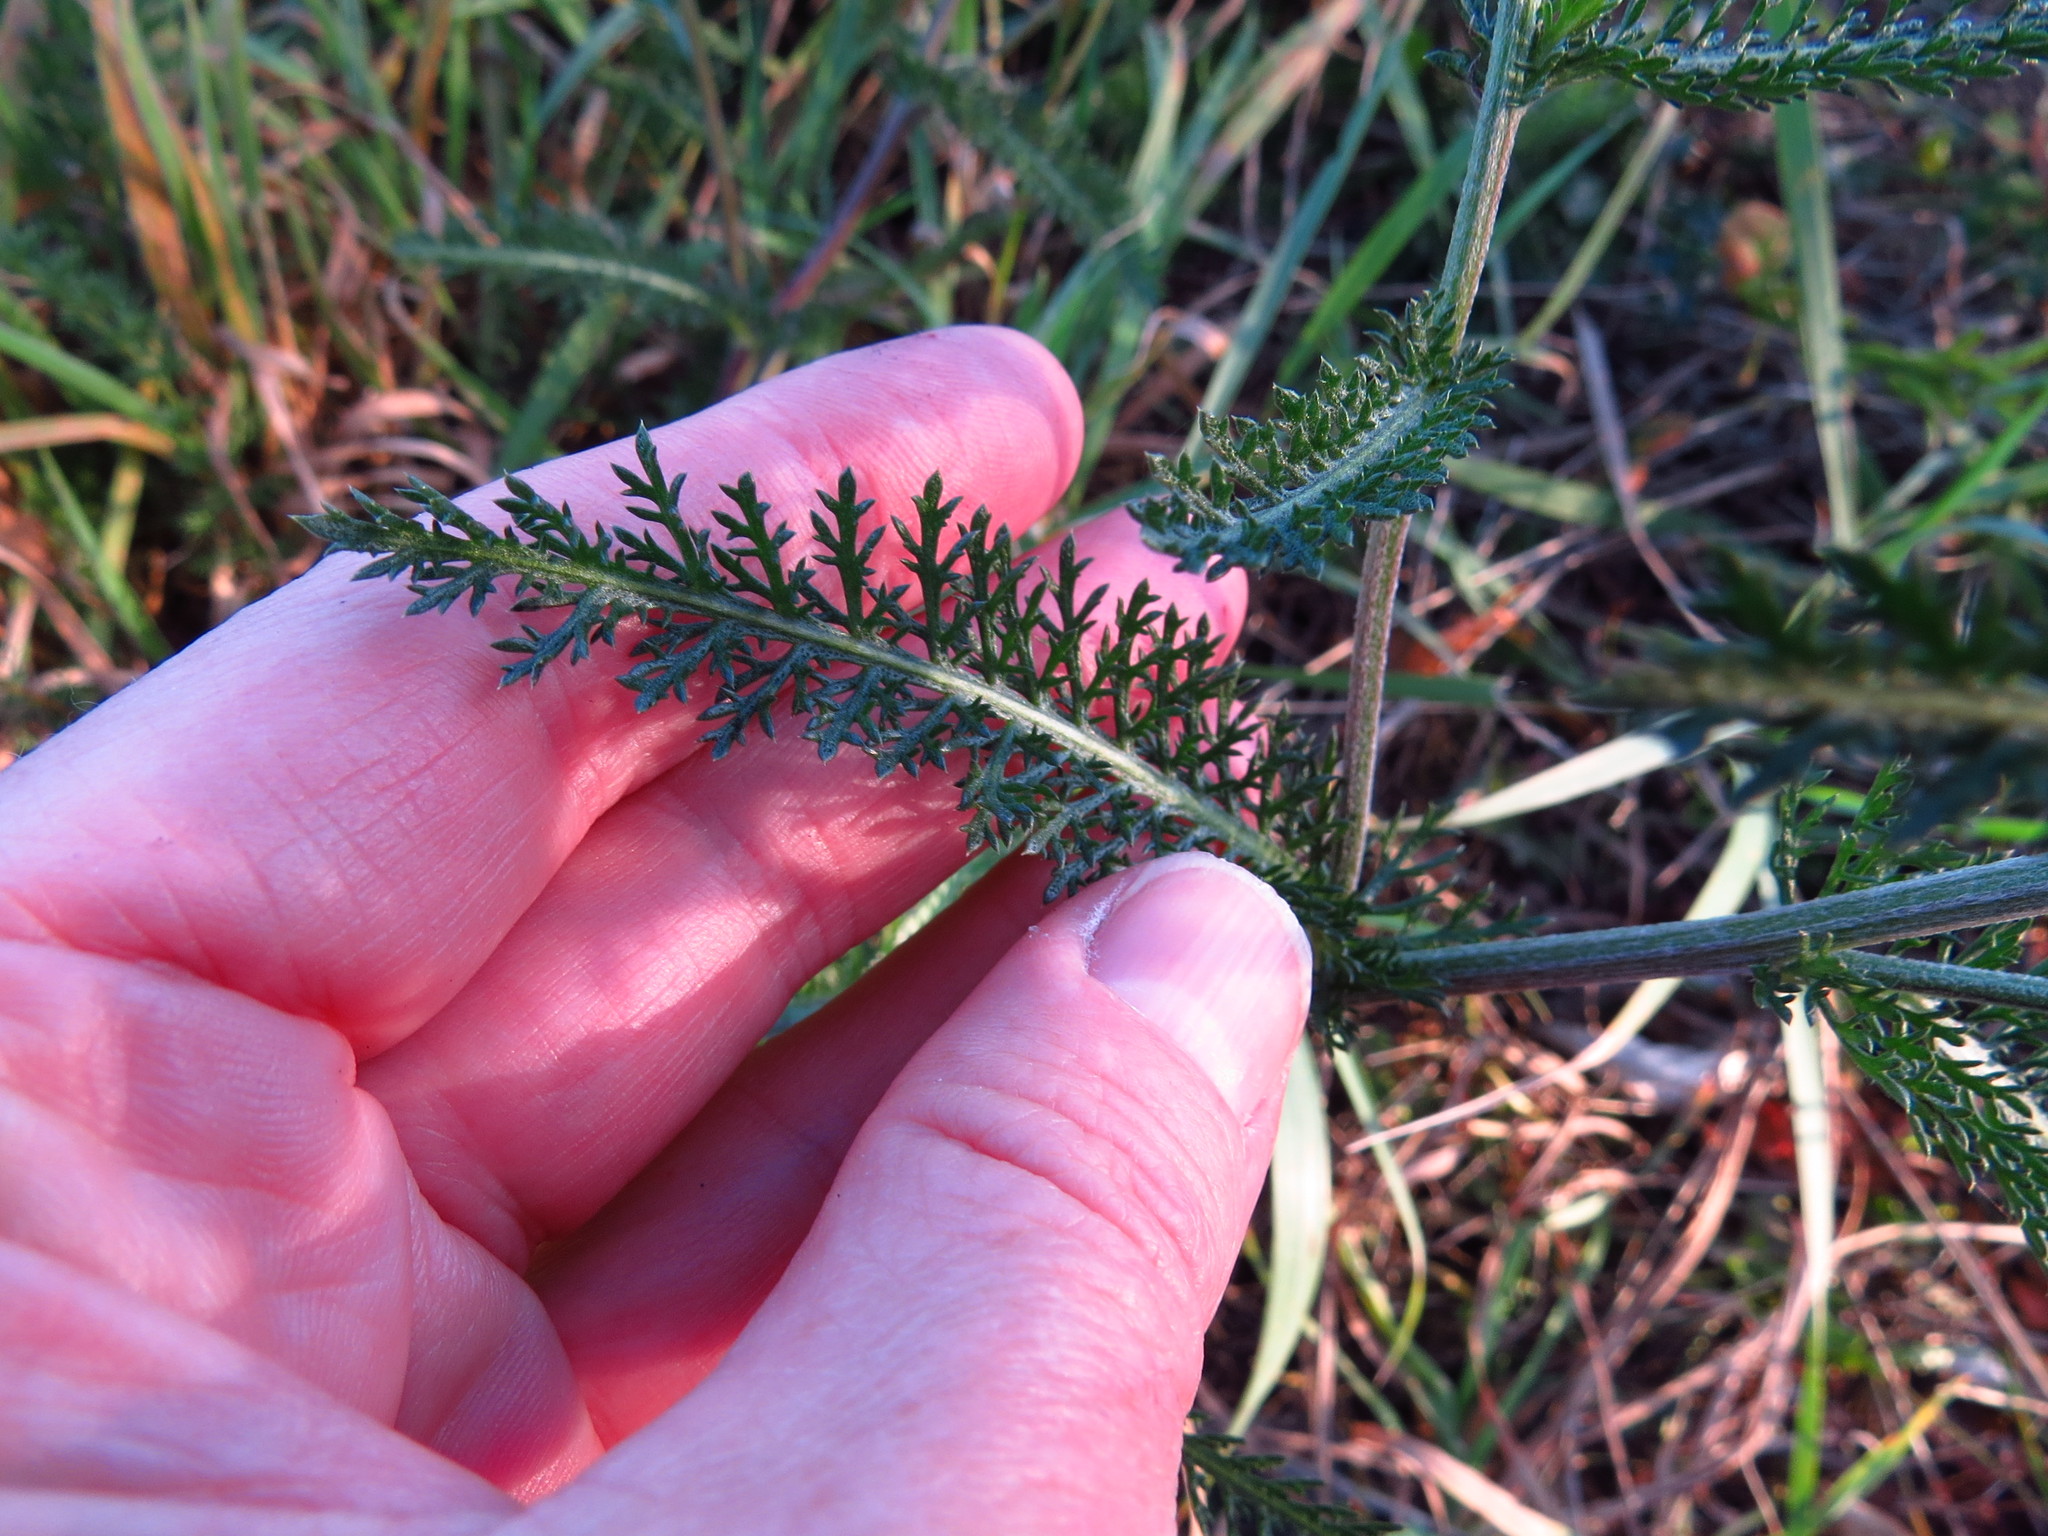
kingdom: Plantae
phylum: Tracheophyta
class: Magnoliopsida
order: Asterales
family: Asteraceae
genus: Achillea
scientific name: Achillea millefolium
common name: Yarrow
